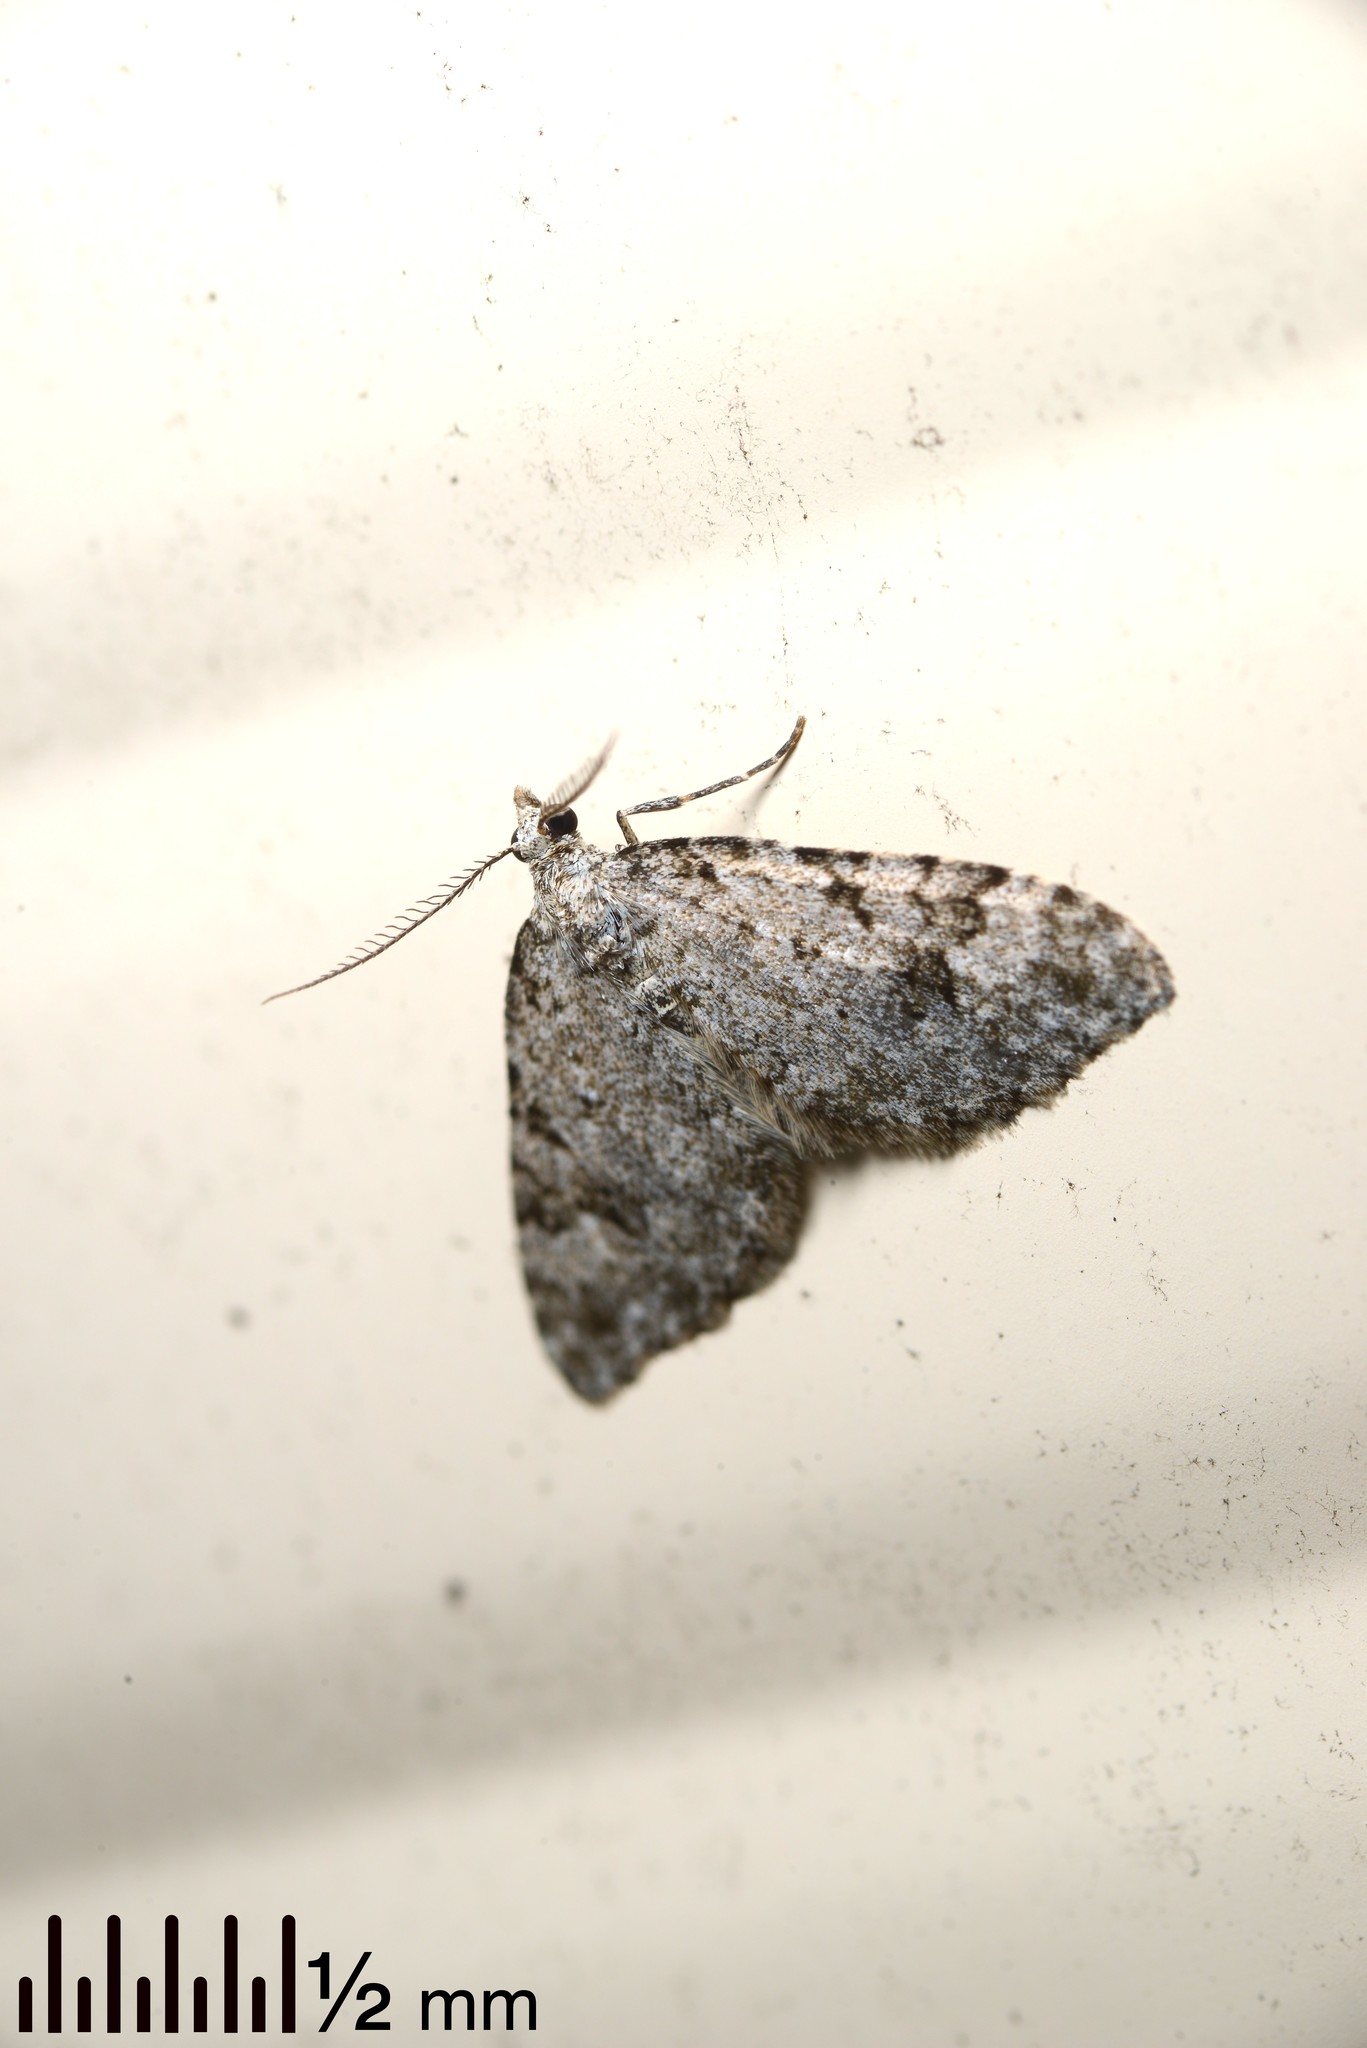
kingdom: Animalia
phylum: Arthropoda
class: Insecta
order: Lepidoptera
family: Geometridae
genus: Helastia
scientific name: Helastia cinerearia
